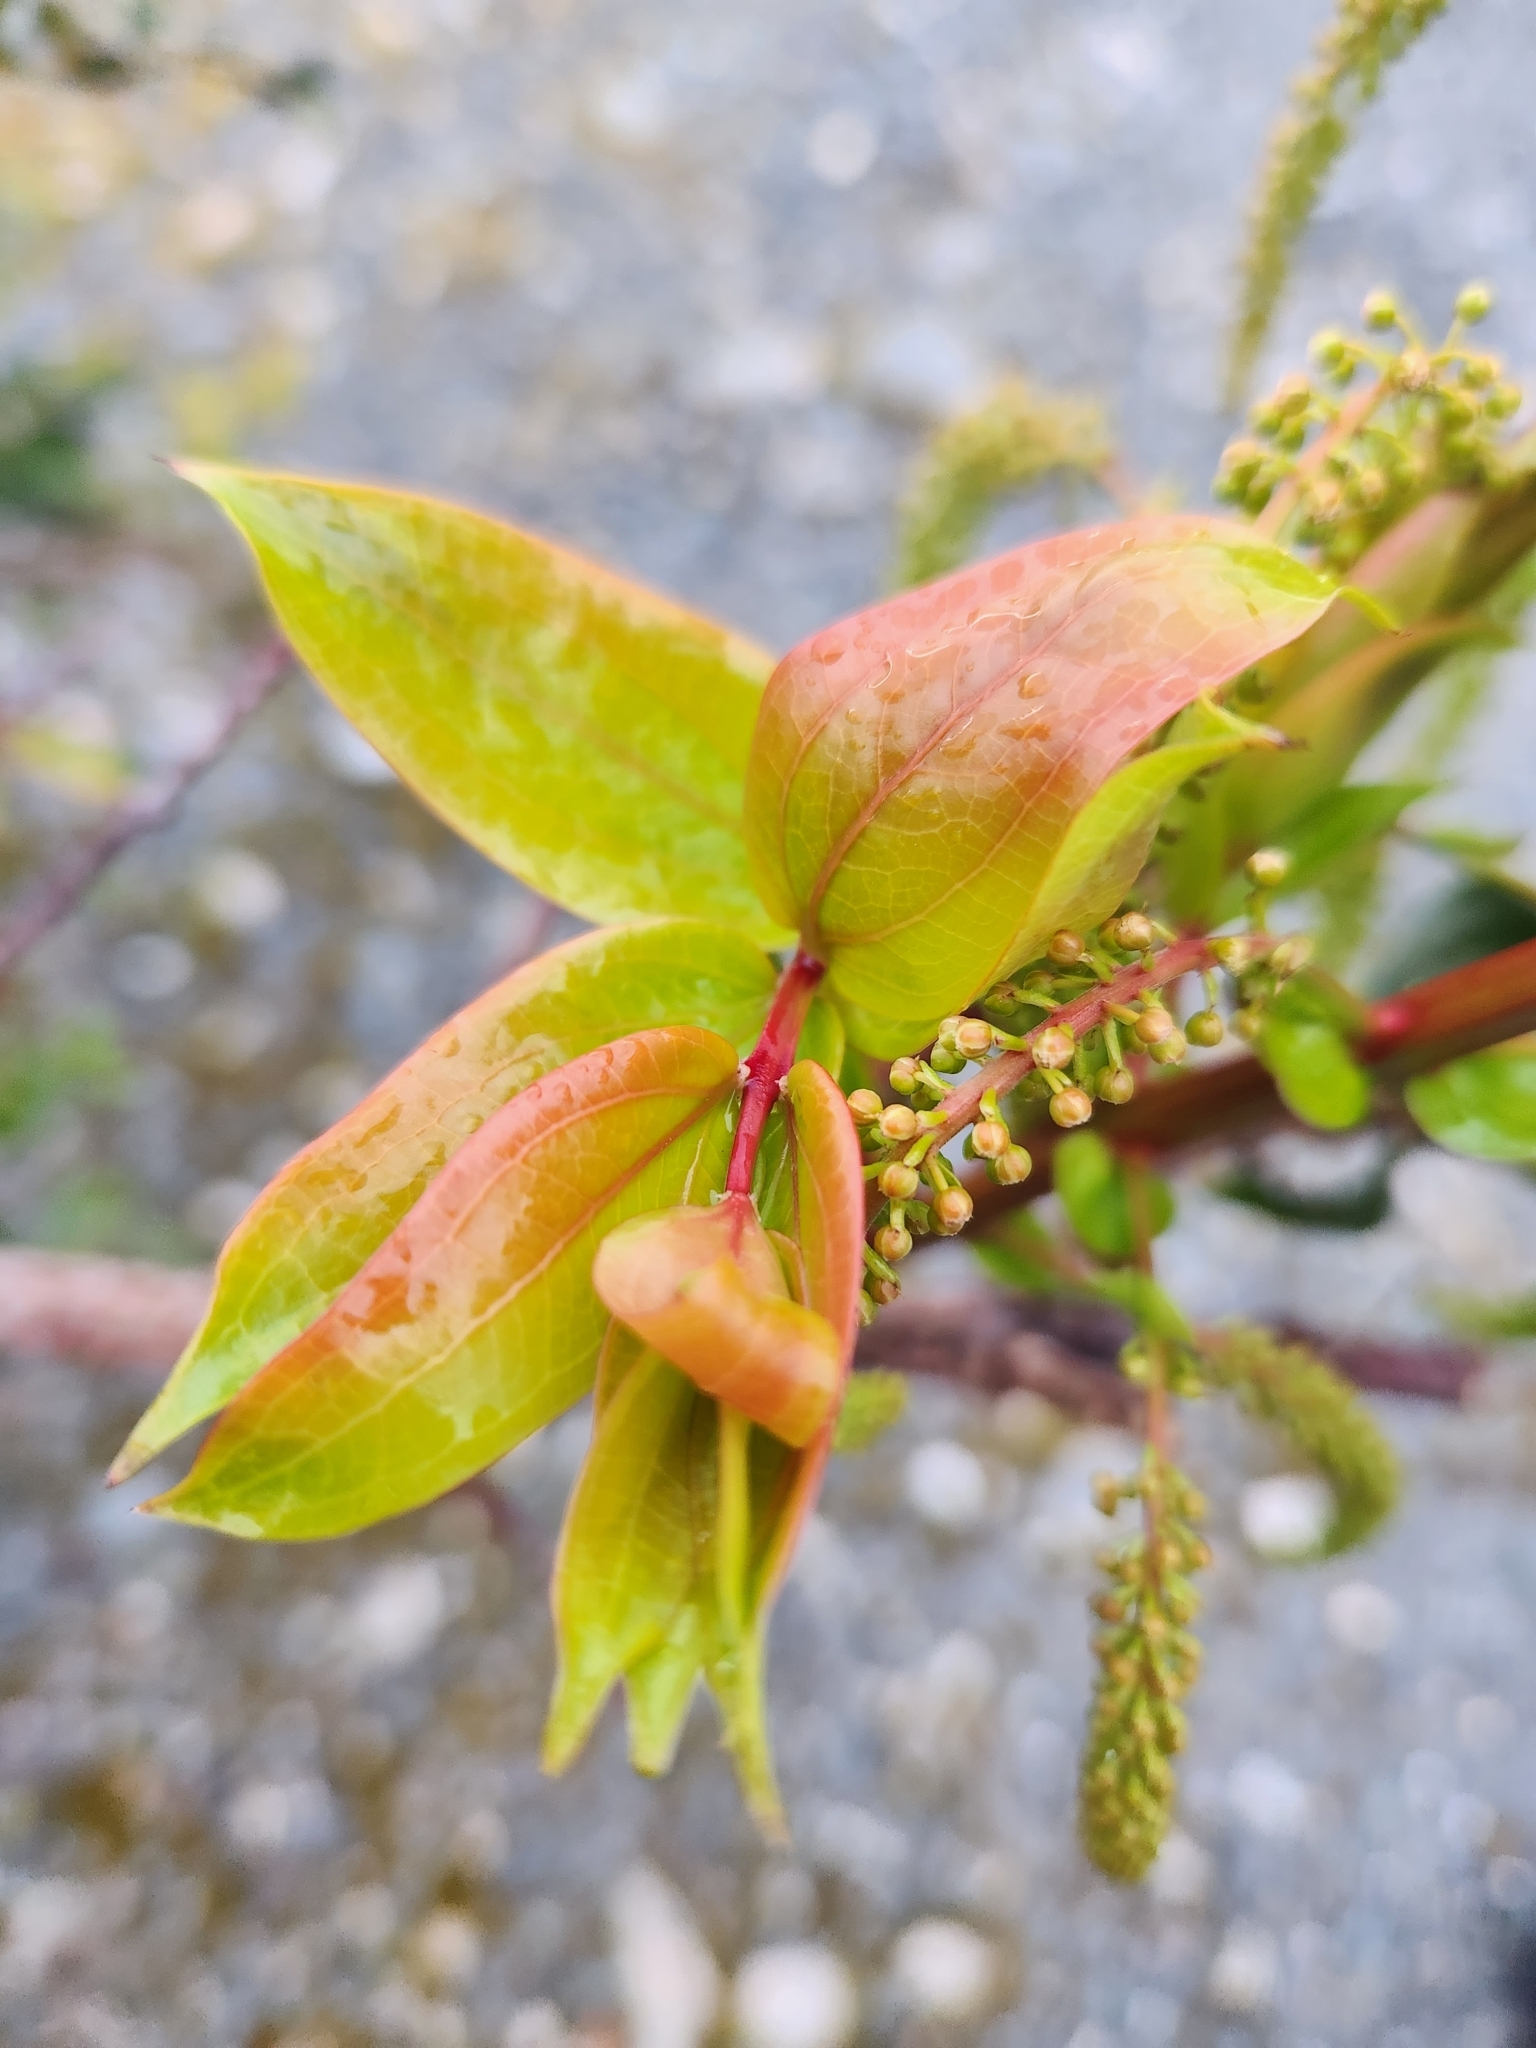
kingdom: Plantae
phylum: Tracheophyta
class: Magnoliopsida
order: Cucurbitales
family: Coriariaceae
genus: Coriaria
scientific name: Coriaria arborea
